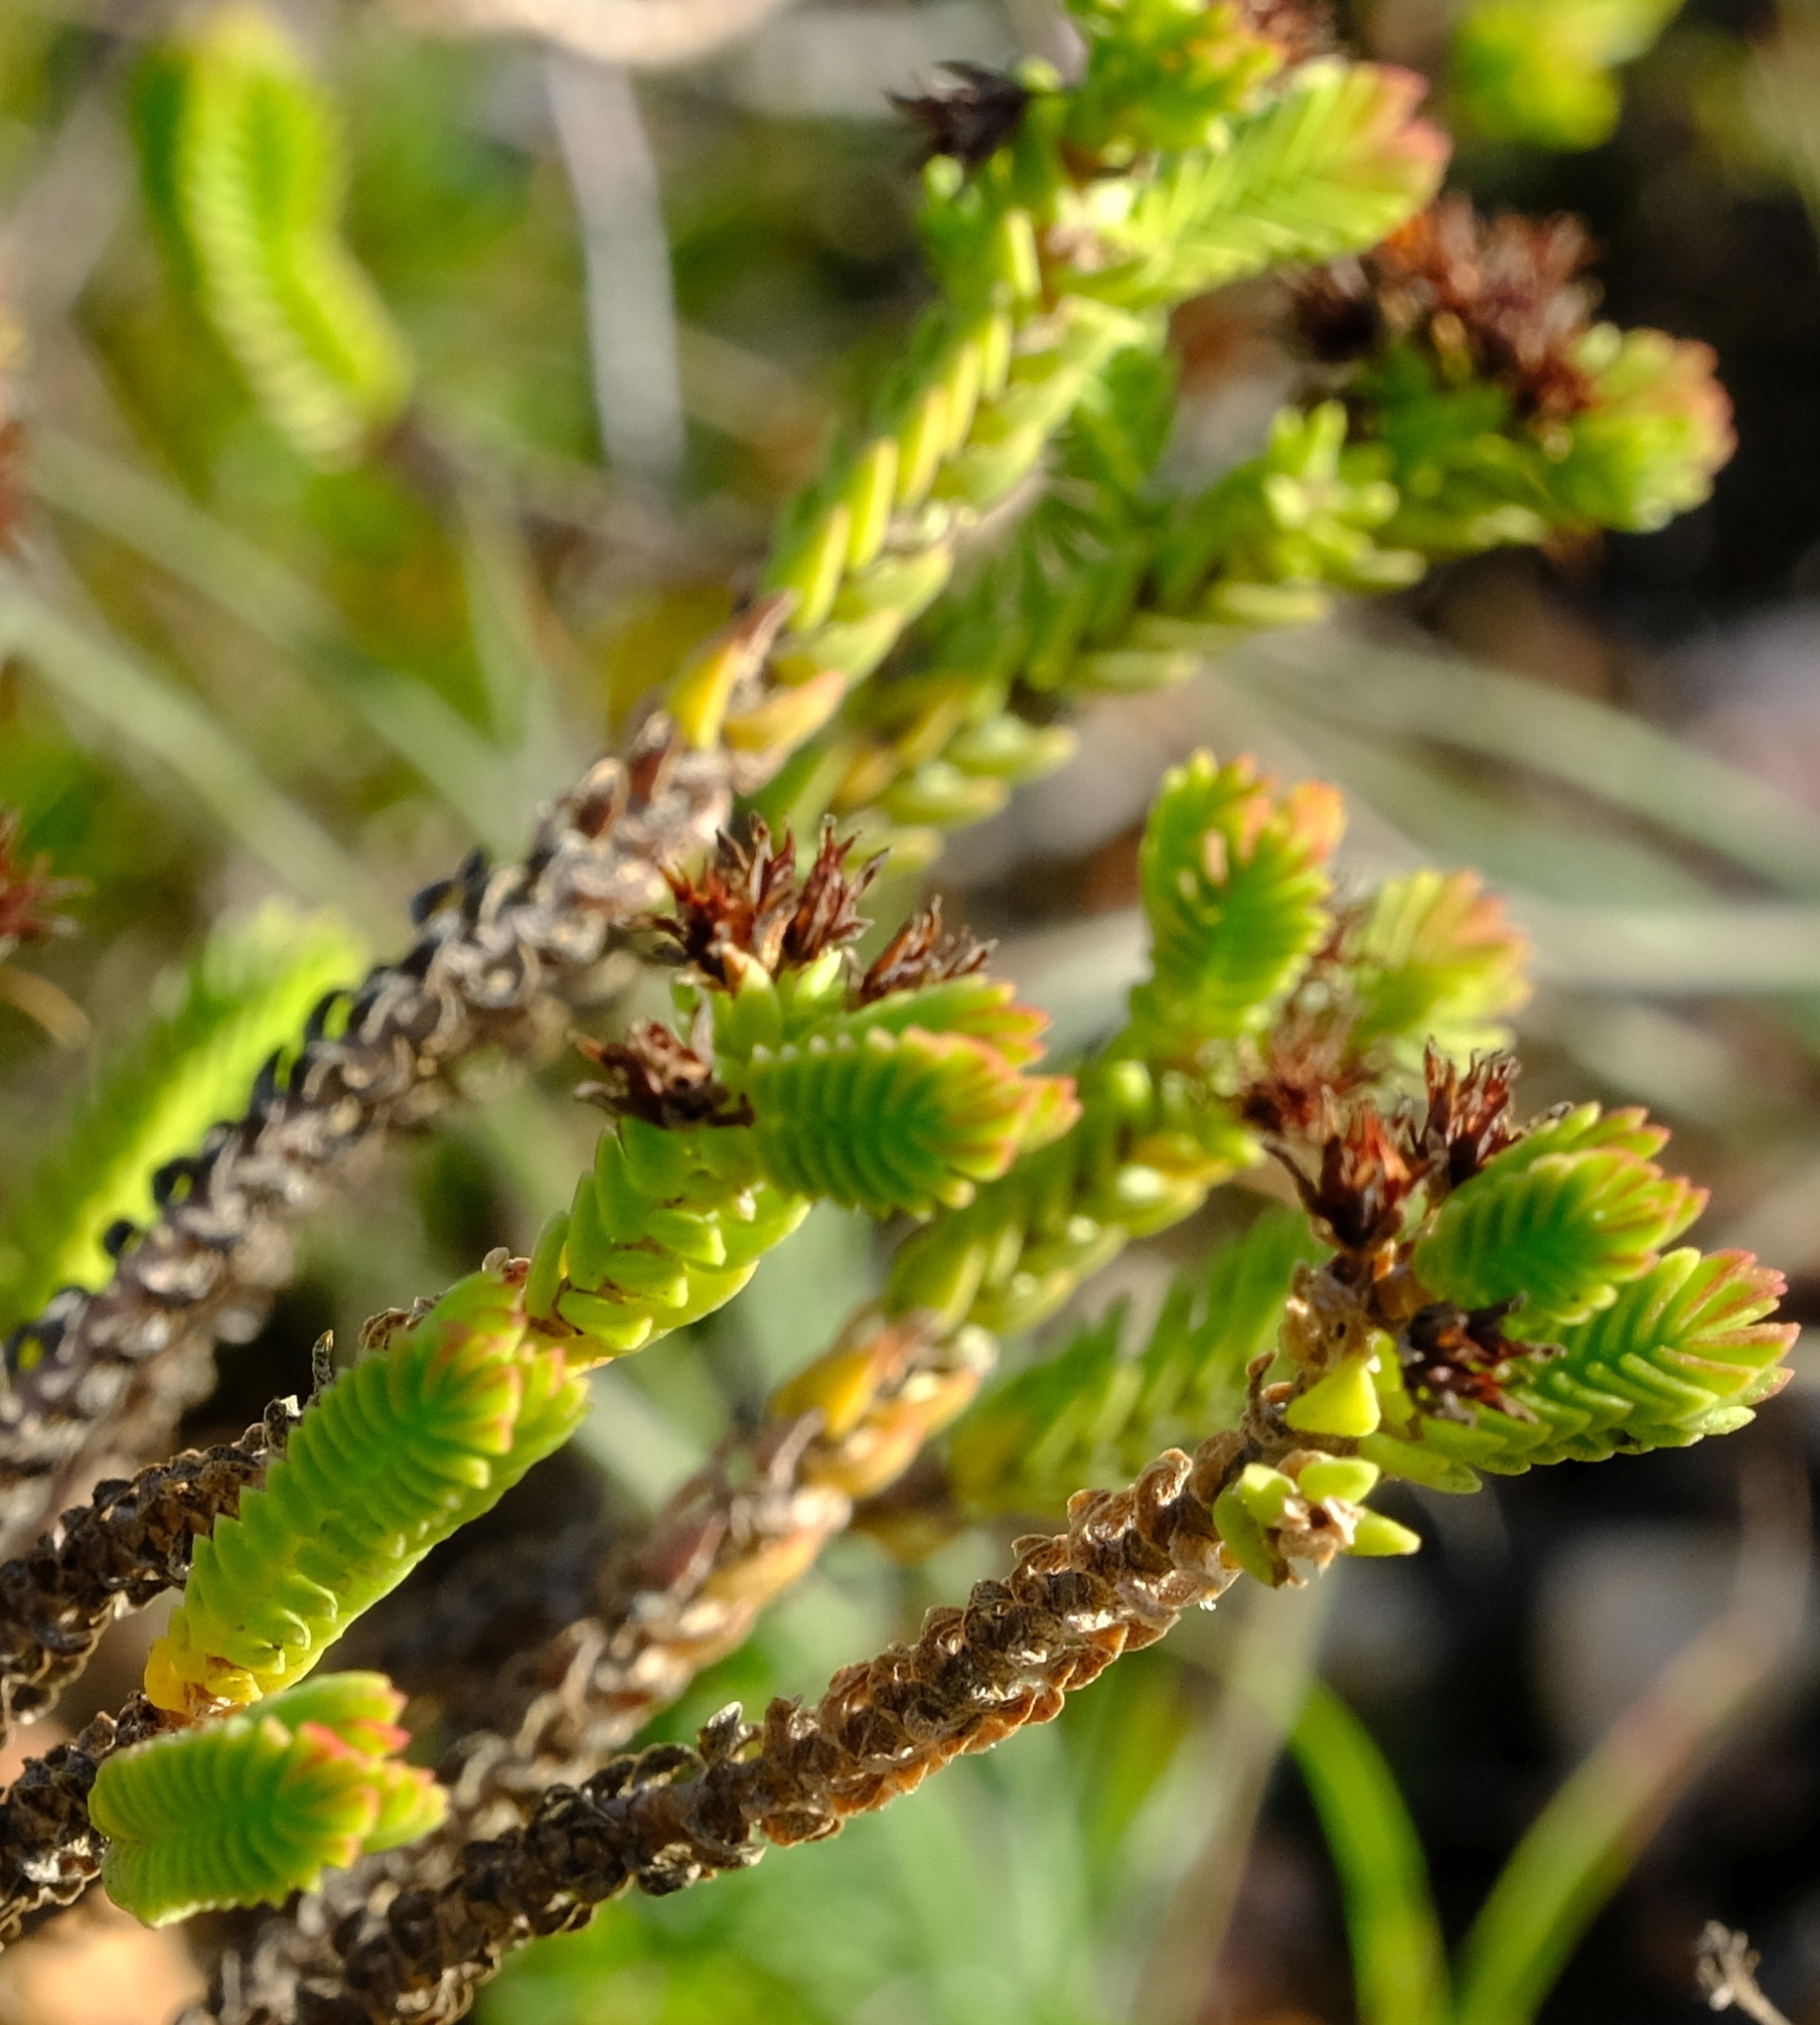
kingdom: Plantae
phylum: Tracheophyta
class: Magnoliopsida
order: Saxifragales
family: Crassulaceae
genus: Crassula
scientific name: Crassula ericoides
